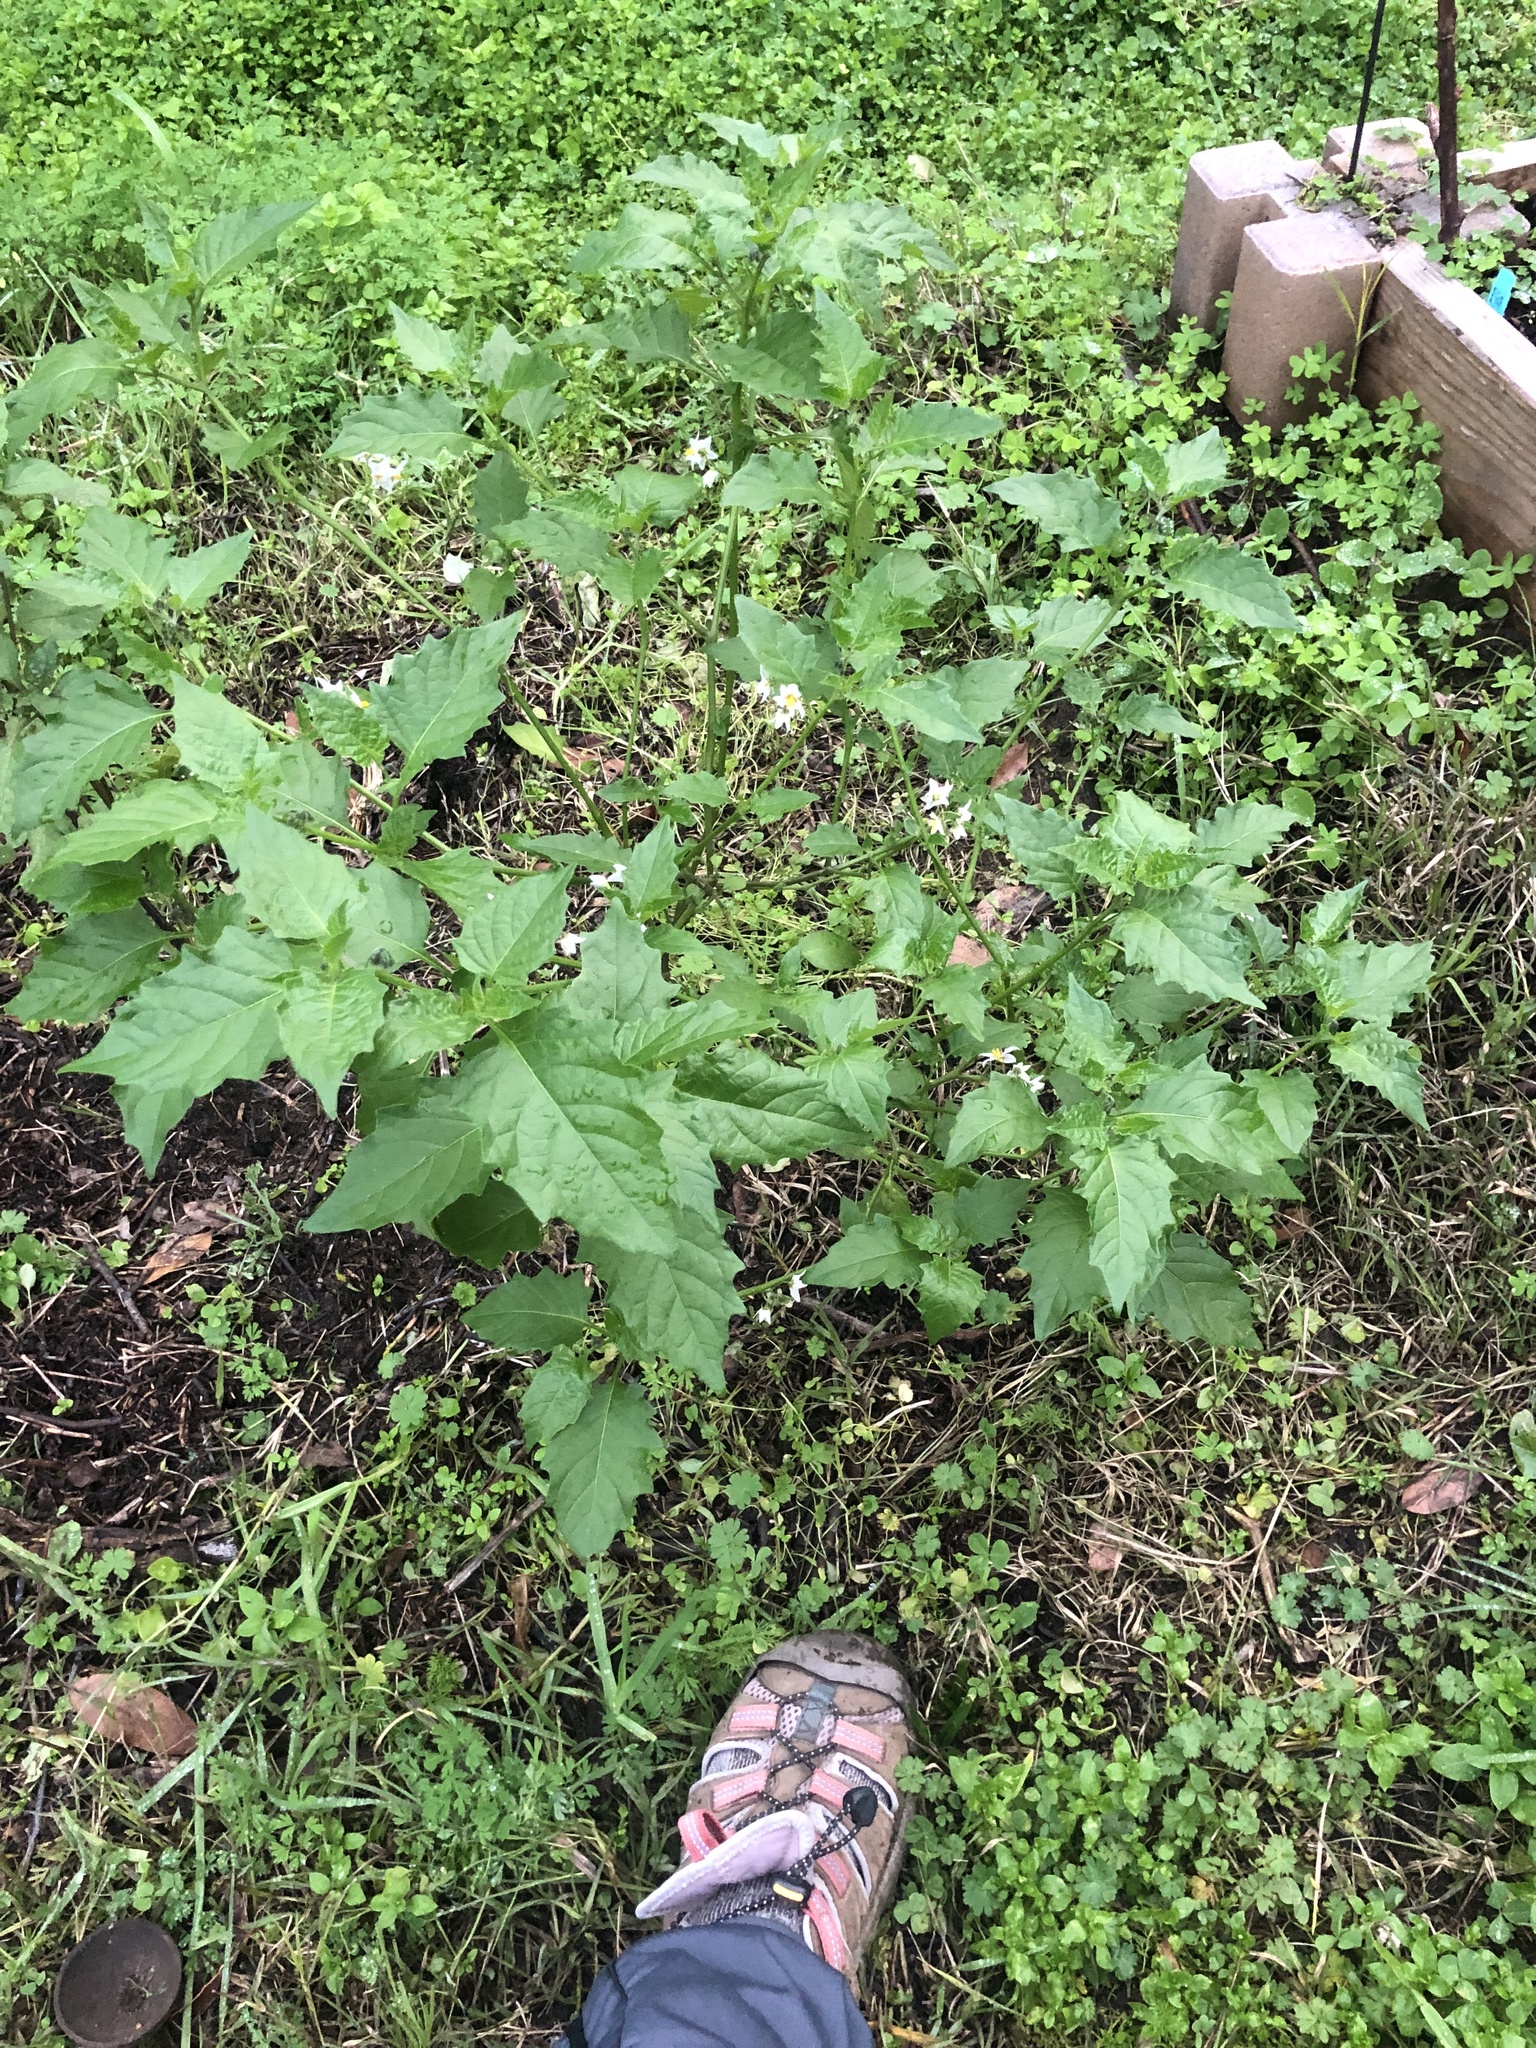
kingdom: Plantae
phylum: Tracheophyta
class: Magnoliopsida
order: Solanales
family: Solanaceae
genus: Solanum
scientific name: Solanum douglasii
